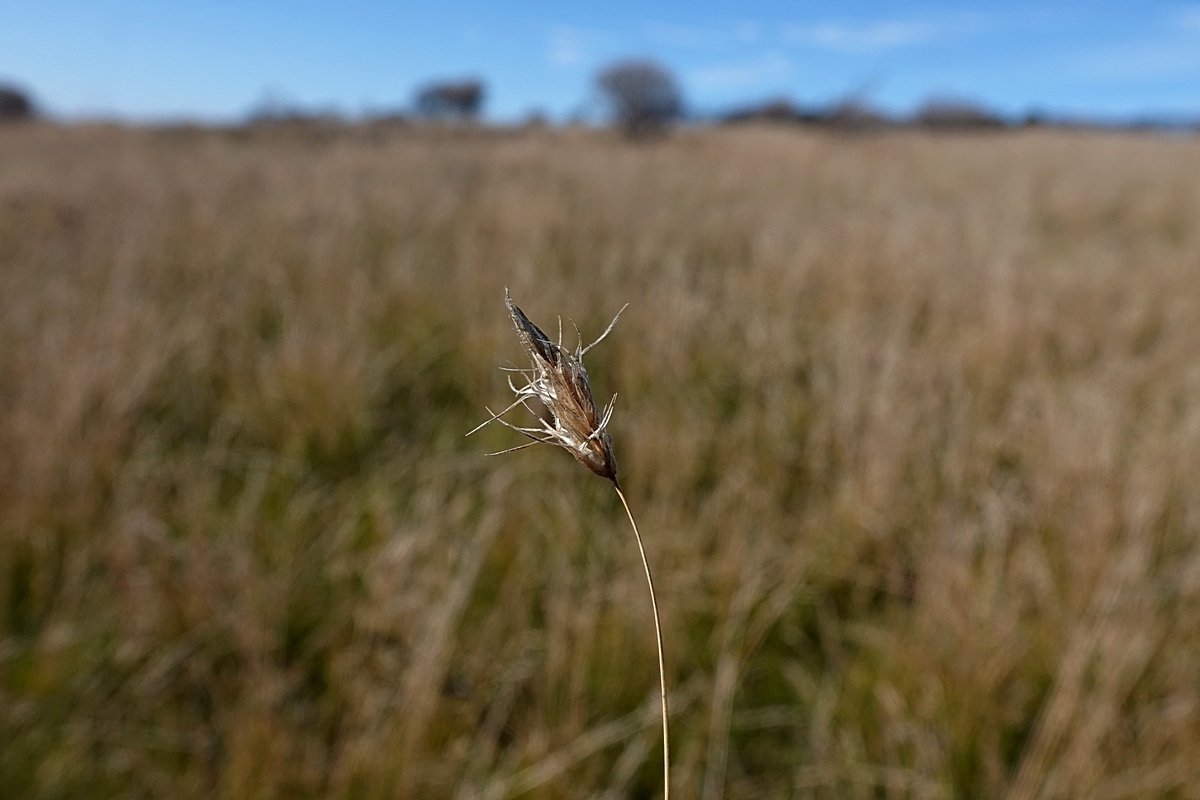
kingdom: Plantae
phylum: Tracheophyta
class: Liliopsida
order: Poales
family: Poaceae
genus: Amphipogon
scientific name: Amphipogon strictus
